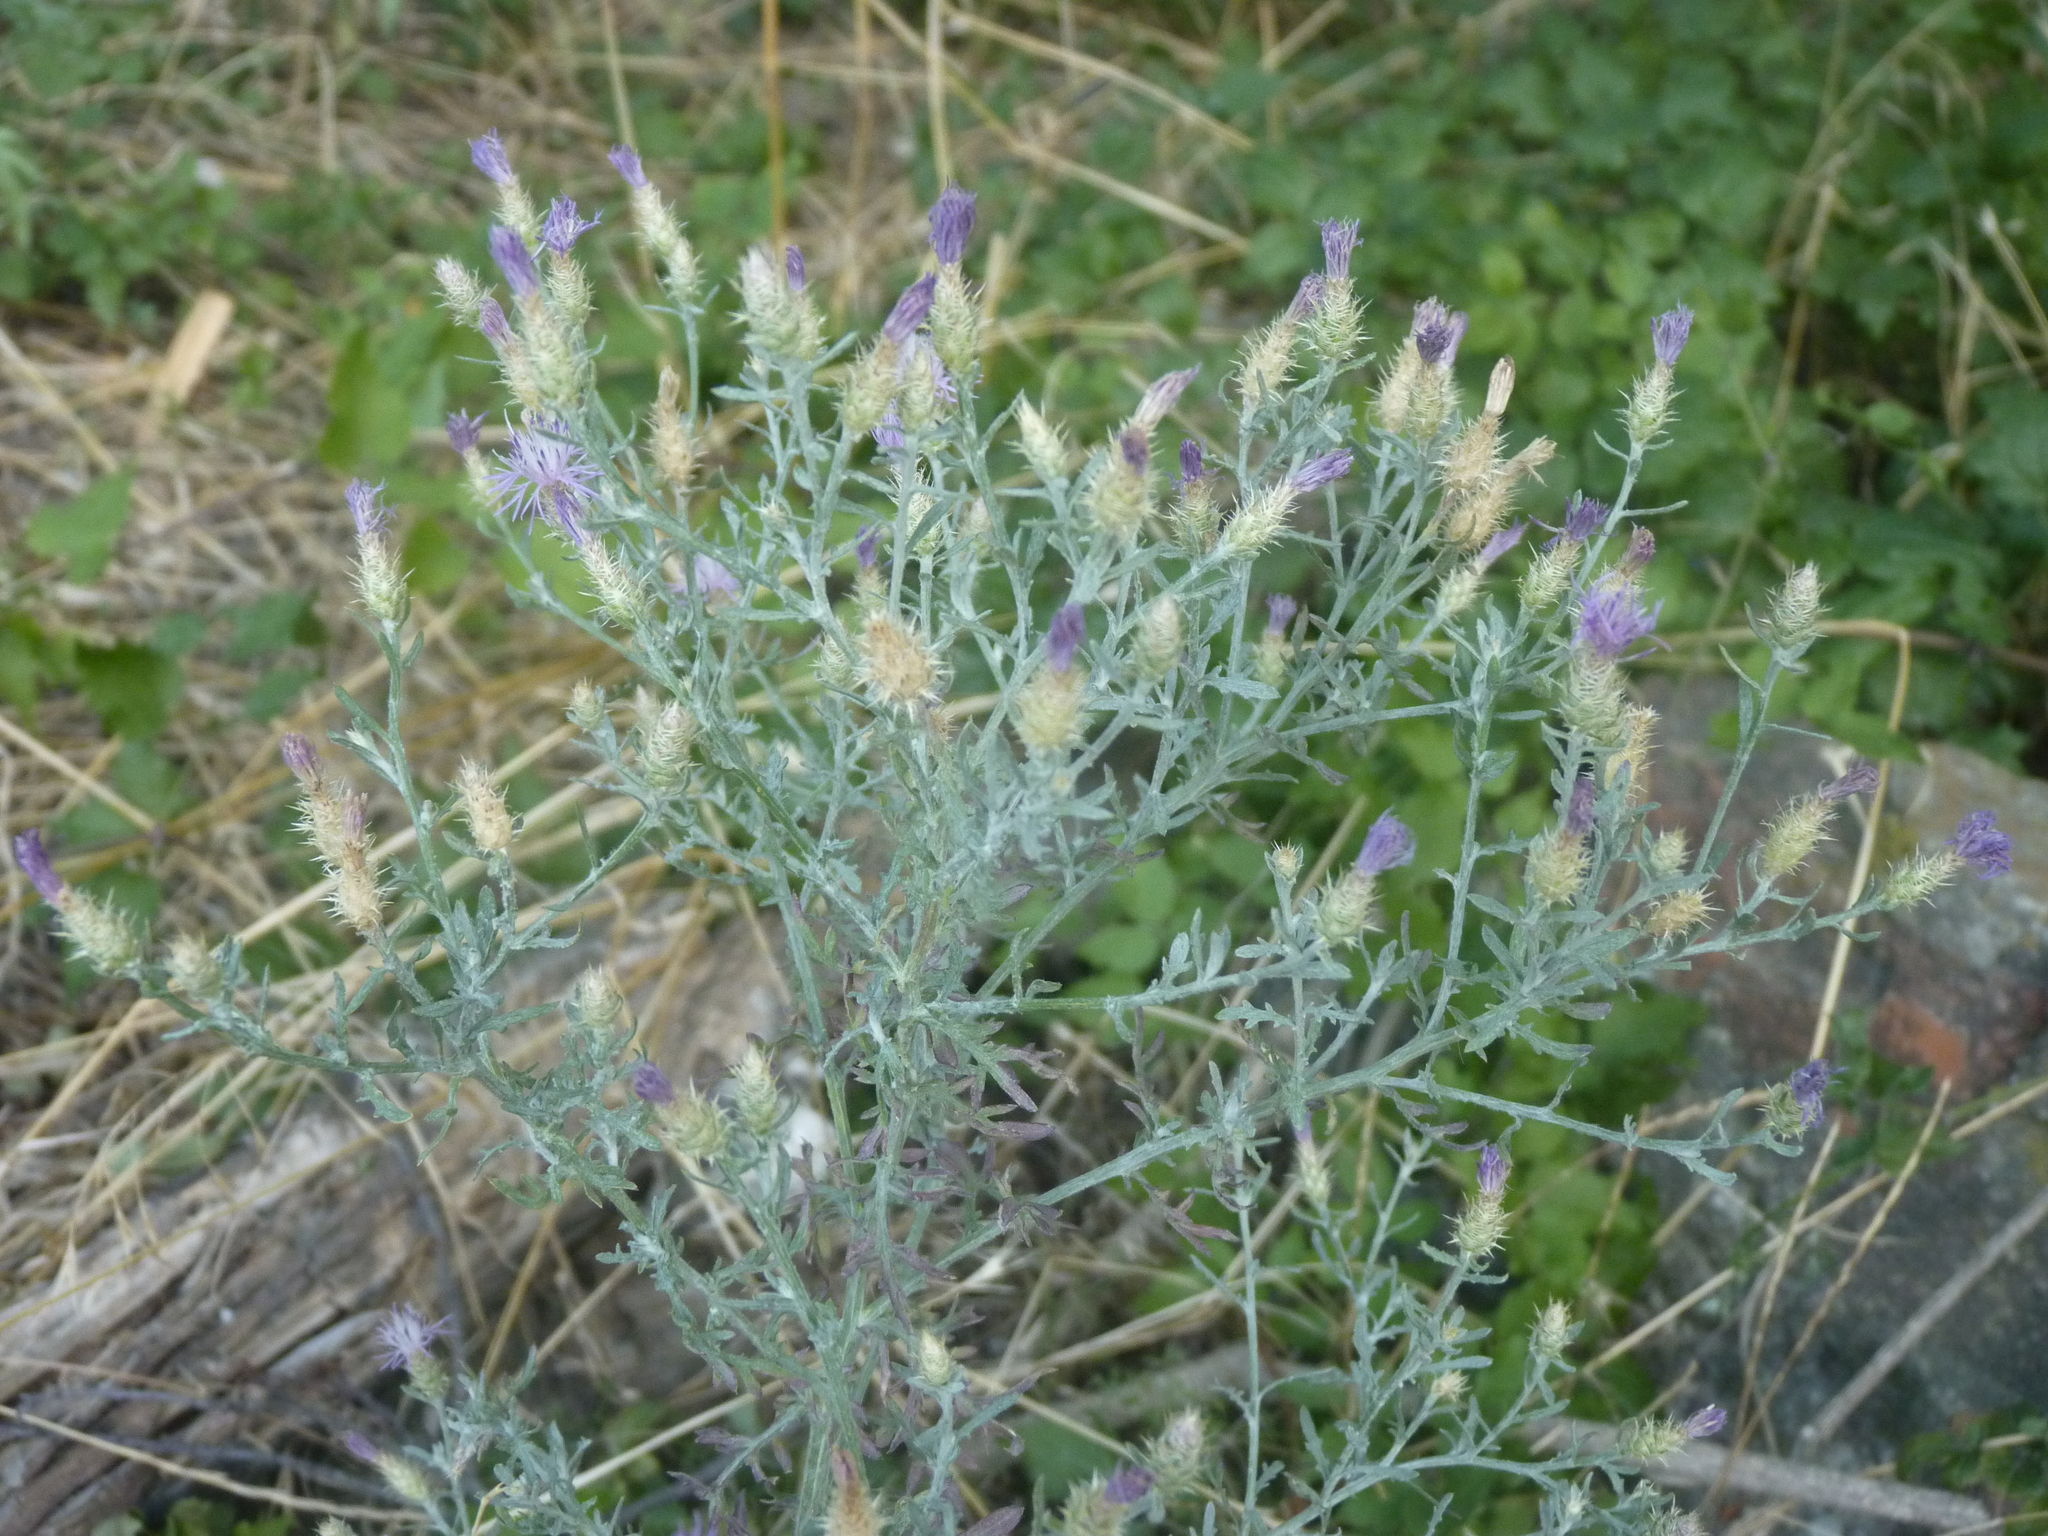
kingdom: Plantae
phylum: Tracheophyta
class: Magnoliopsida
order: Asterales
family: Asteraceae
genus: Centaurea
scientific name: Centaurea diffusa
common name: Diffuse knapweed
